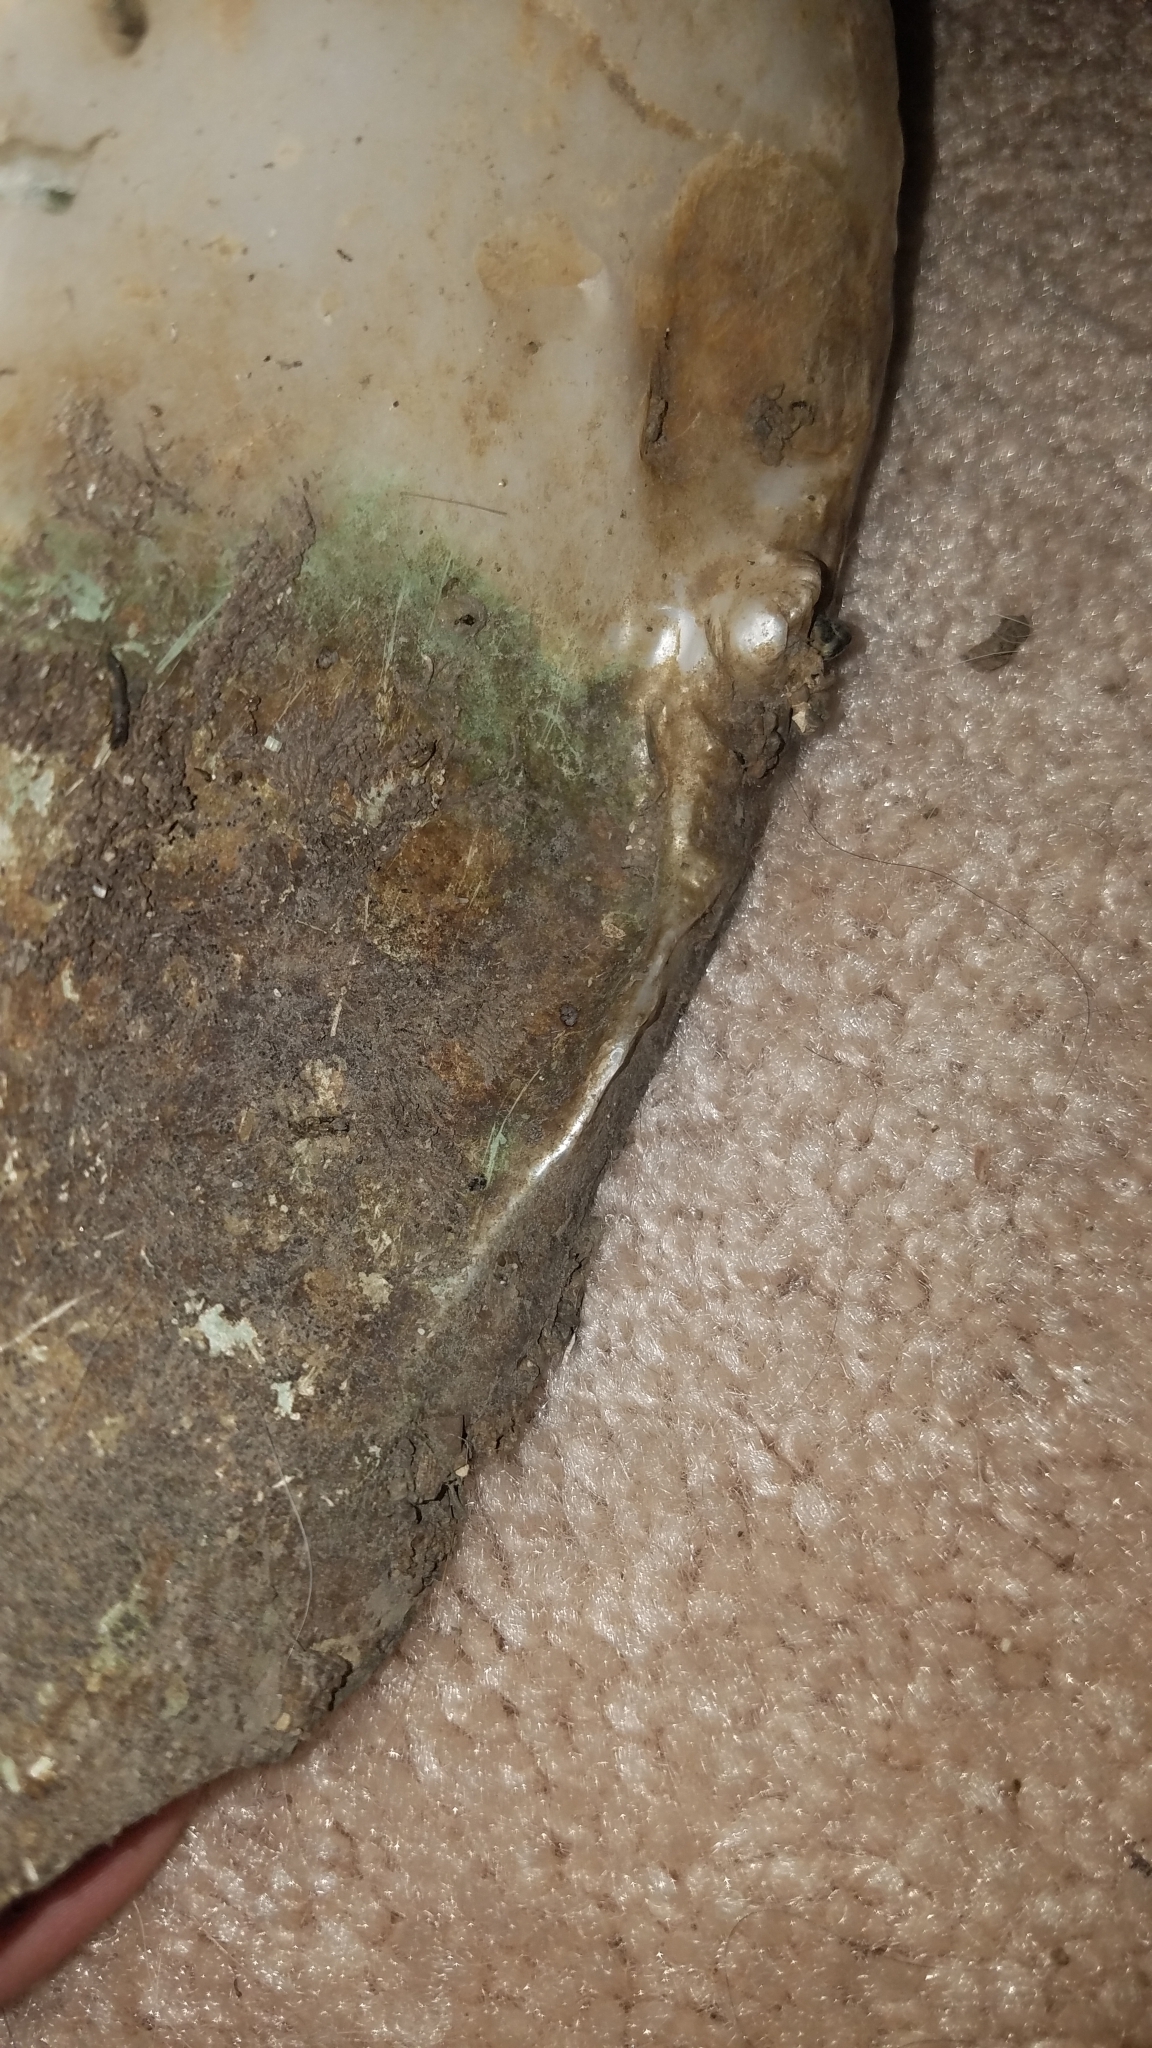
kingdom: Animalia
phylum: Mollusca
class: Bivalvia
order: Unionida
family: Unionidae
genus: Lasmigona
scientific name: Lasmigona complanata
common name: White heelsplitter
